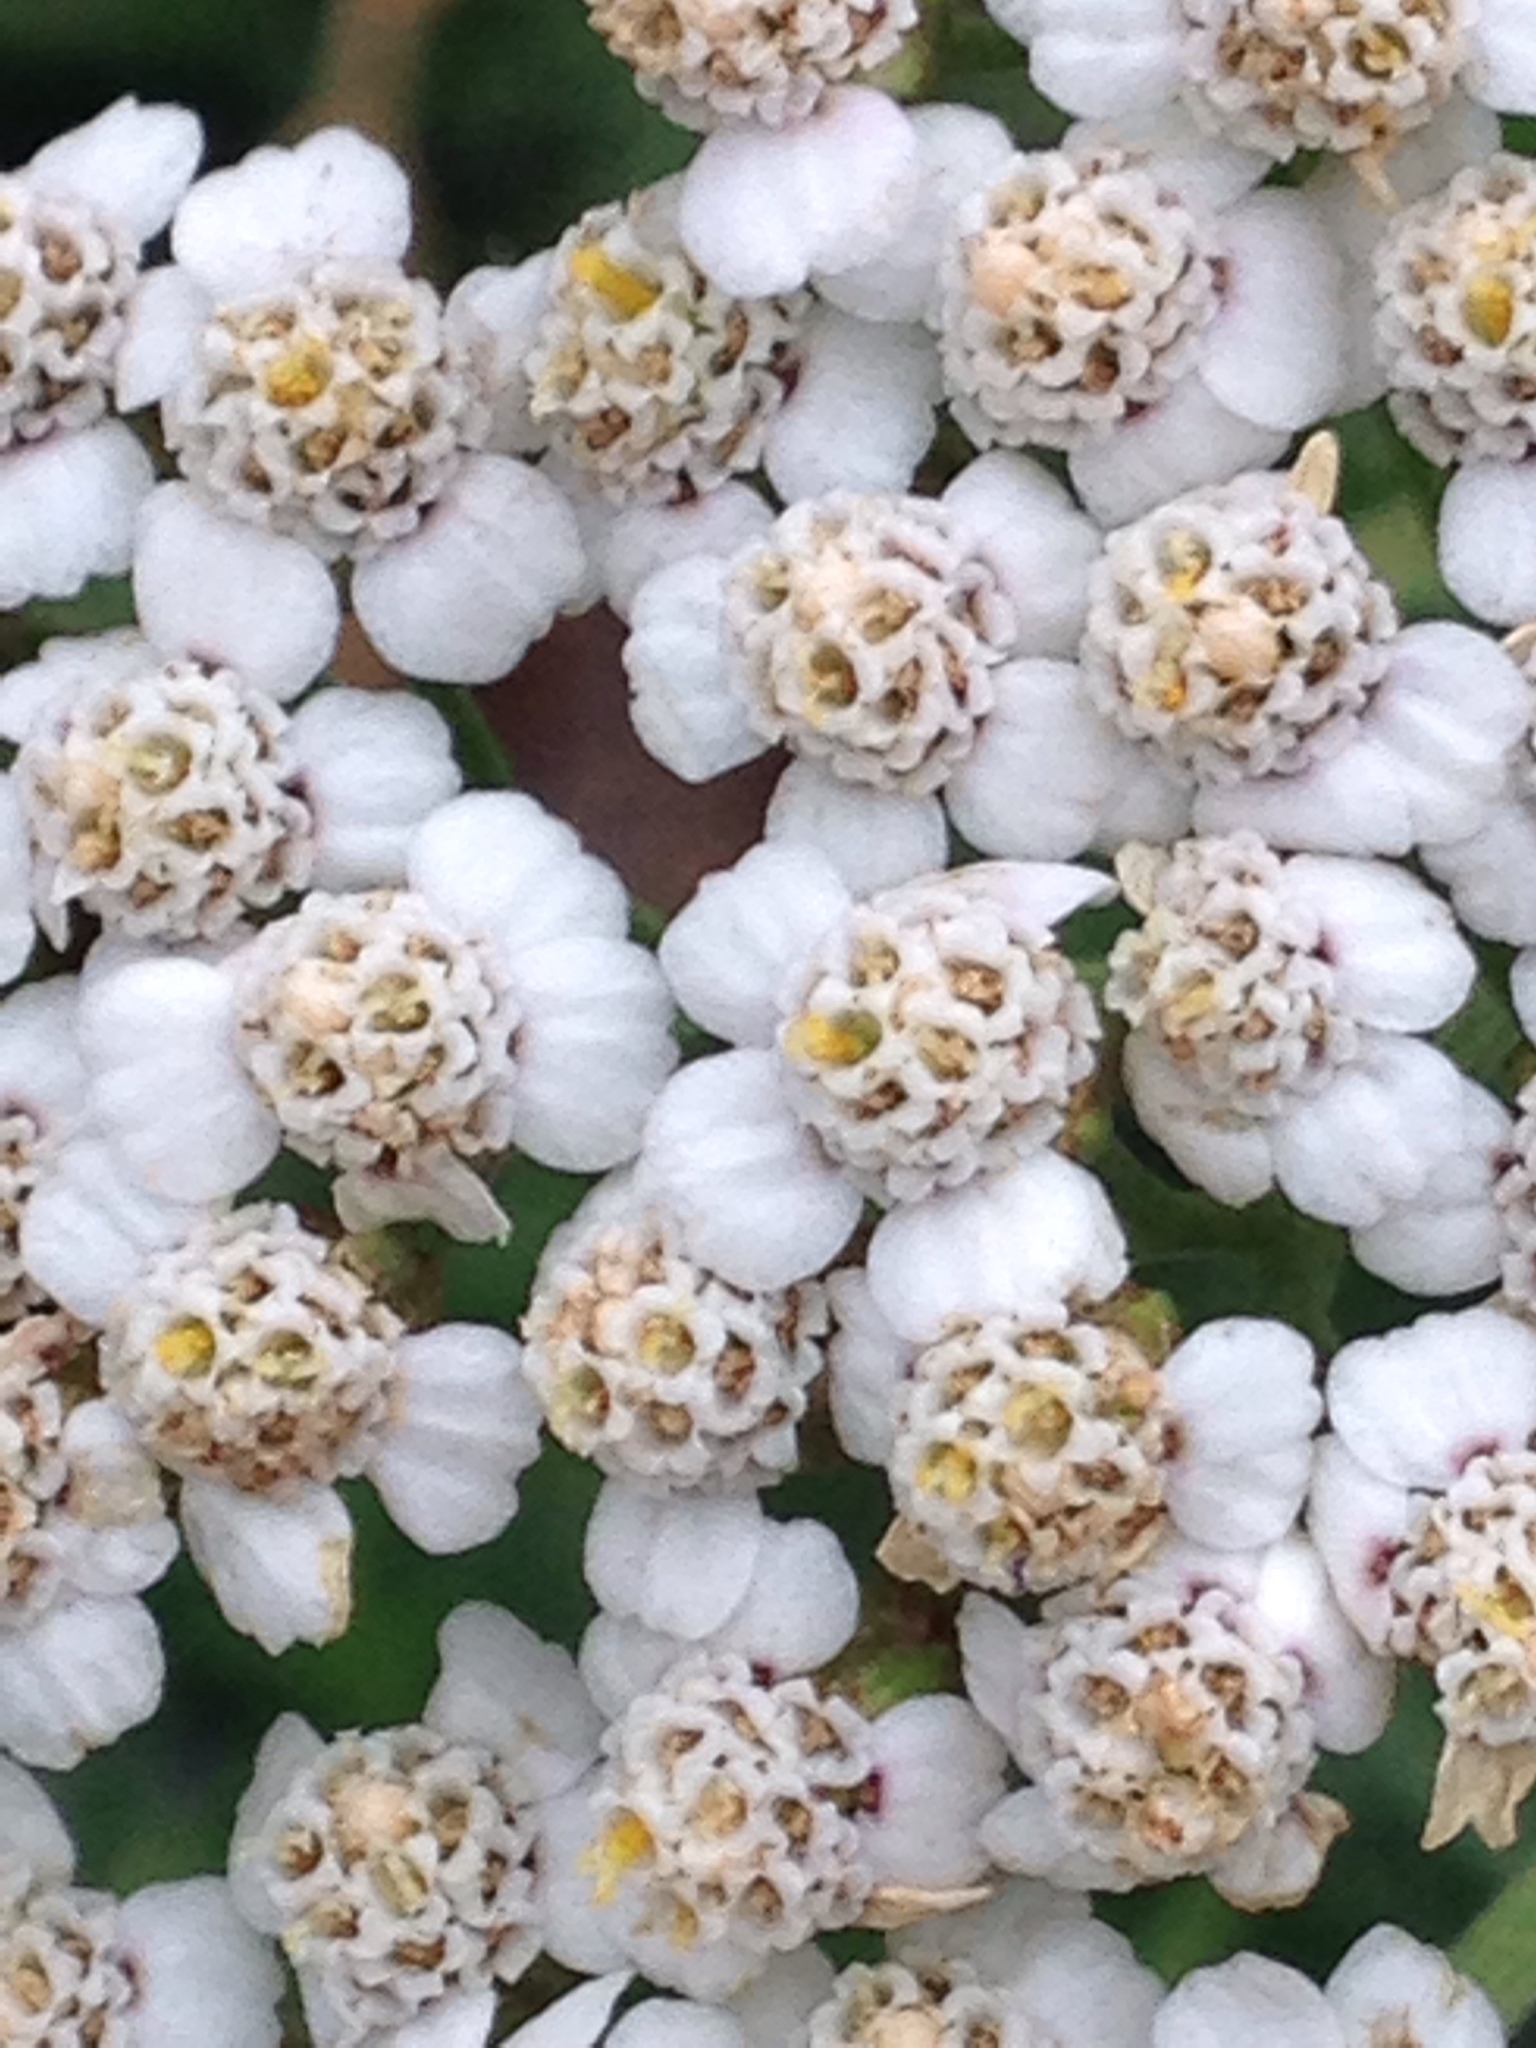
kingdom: Plantae
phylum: Tracheophyta
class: Magnoliopsida
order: Asterales
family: Asteraceae
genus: Achillea
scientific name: Achillea millefolium
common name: Yarrow
